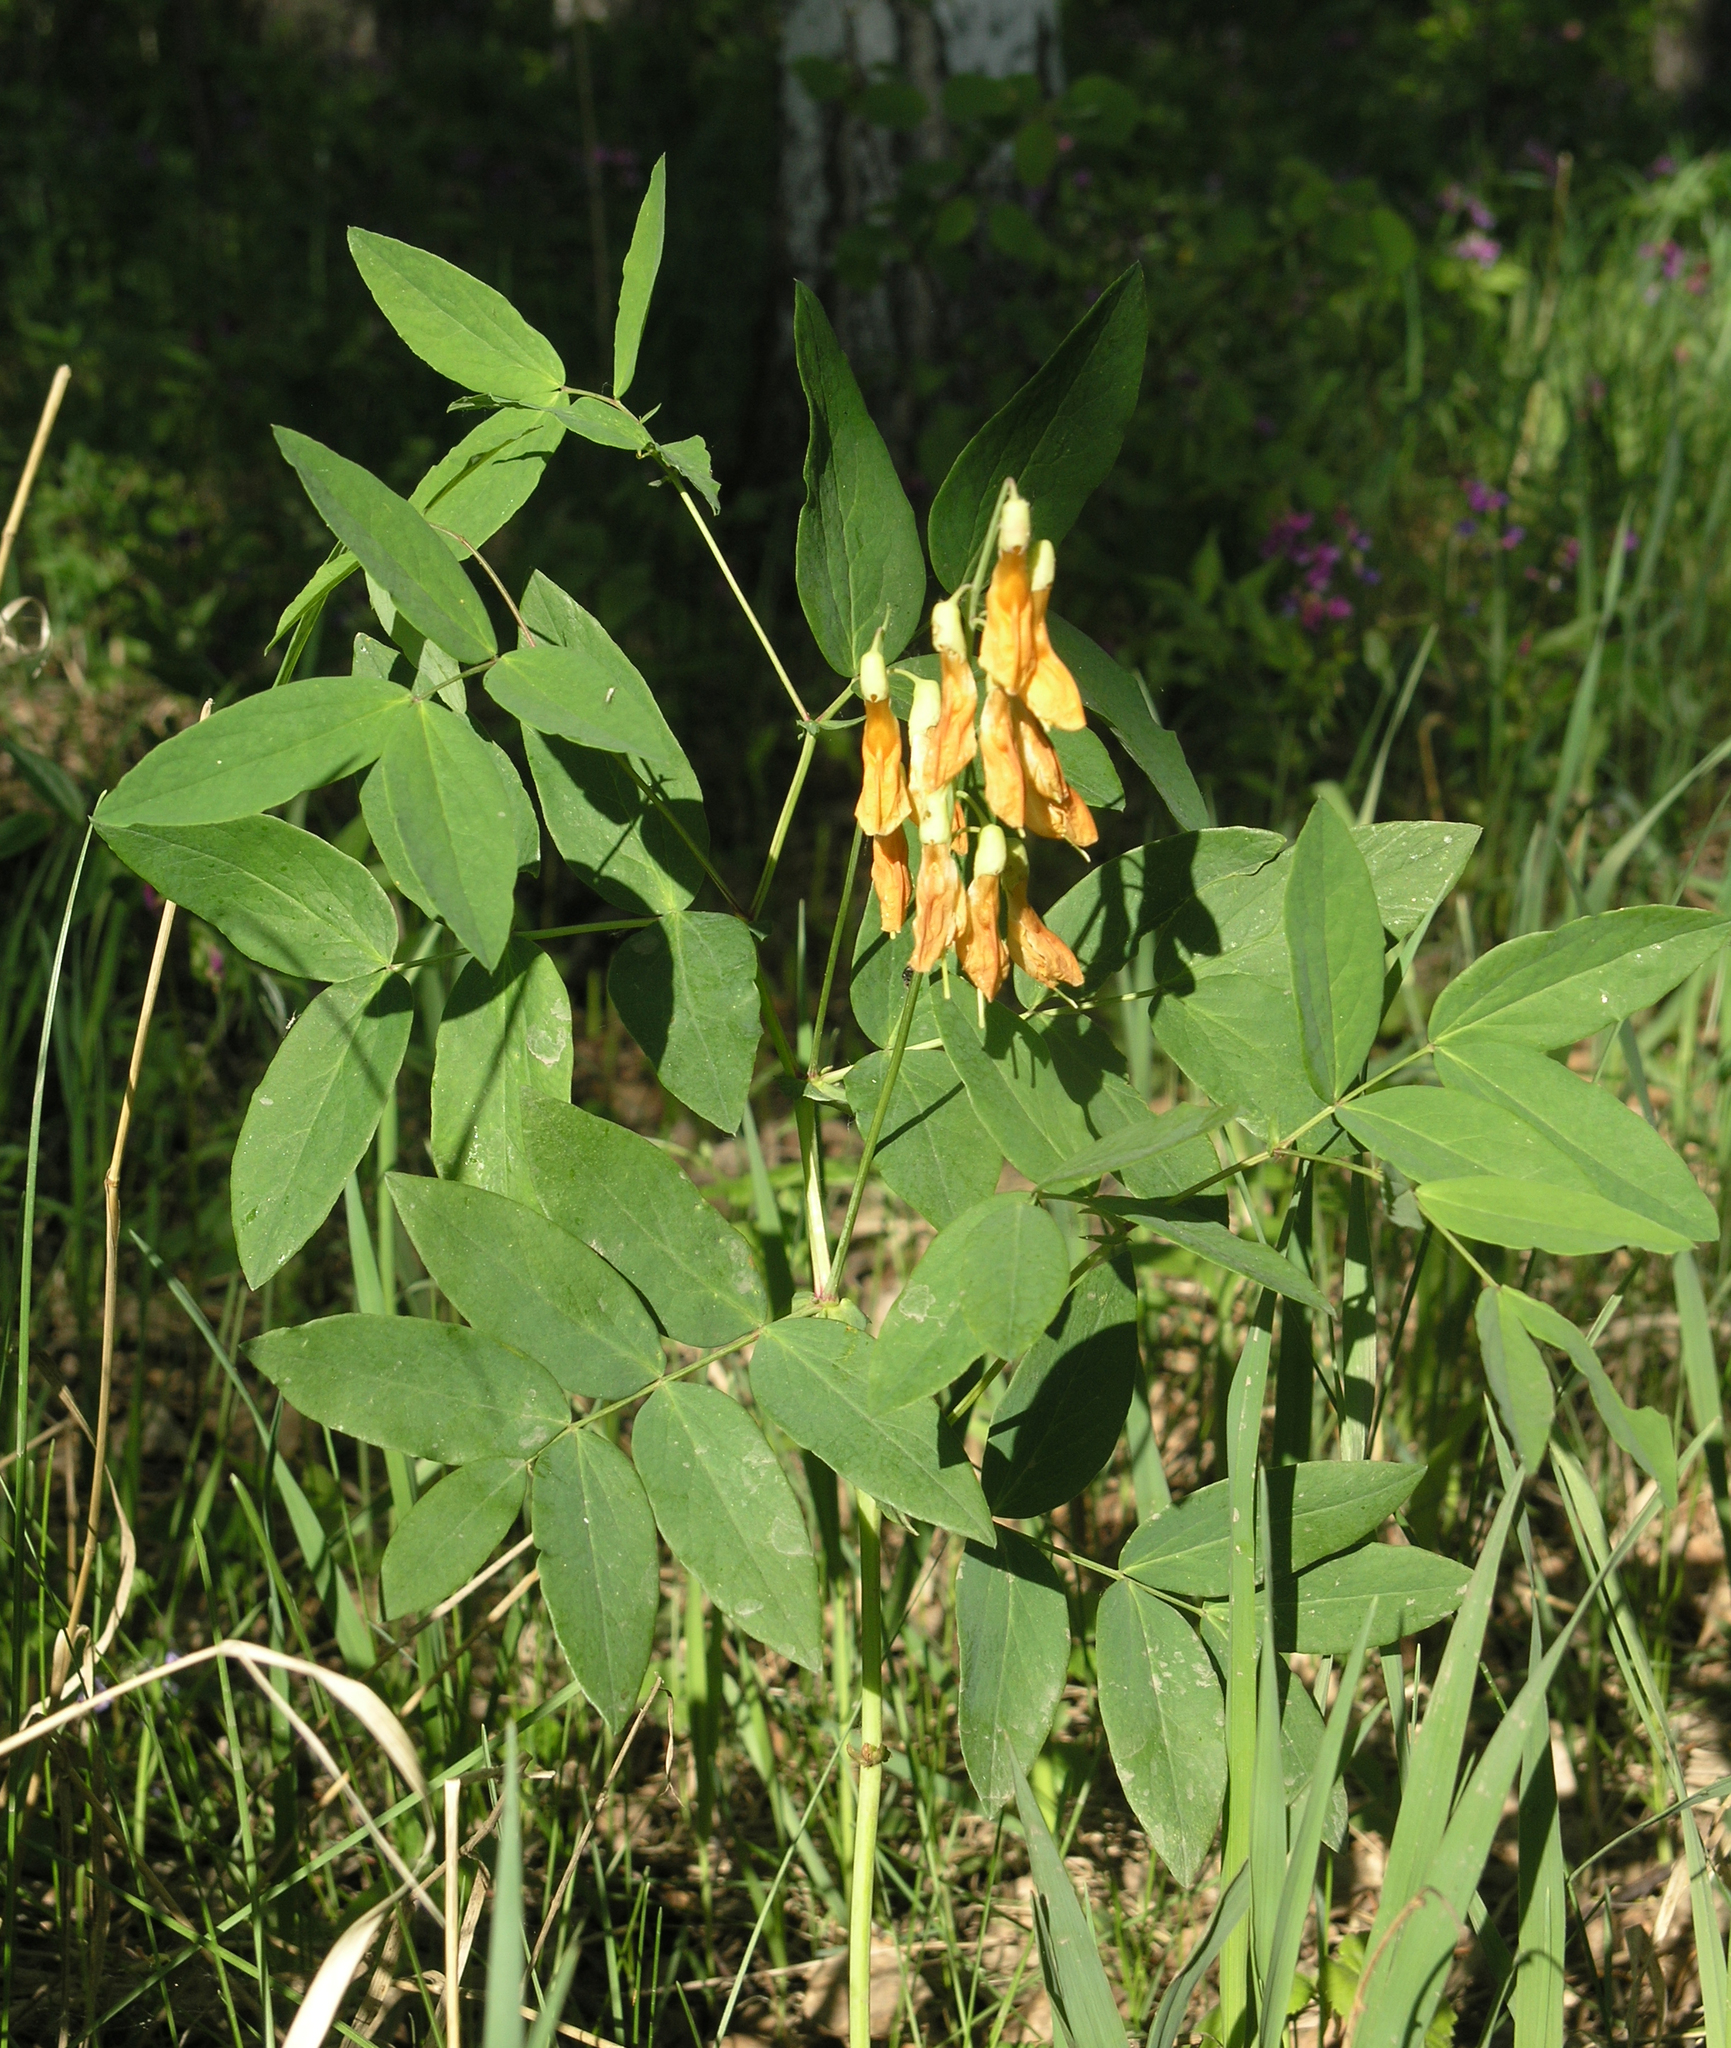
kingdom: Plantae
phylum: Tracheophyta
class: Magnoliopsida
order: Fabales
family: Fabaceae
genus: Lathyrus
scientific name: Lathyrus gmelinii
